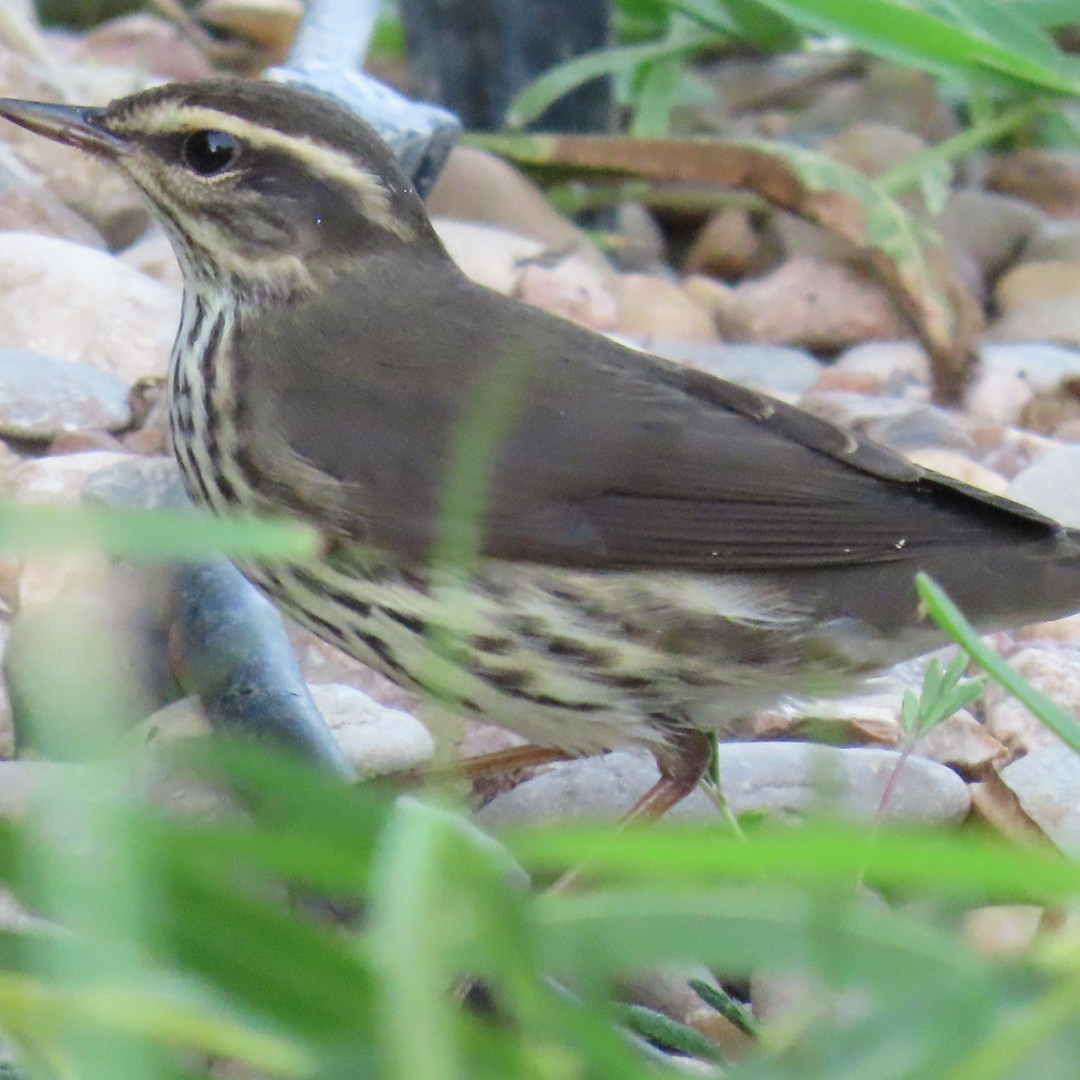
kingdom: Animalia
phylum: Chordata
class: Aves
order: Passeriformes
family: Parulidae
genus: Parkesia
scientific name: Parkesia noveboracensis
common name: Northern waterthrush
